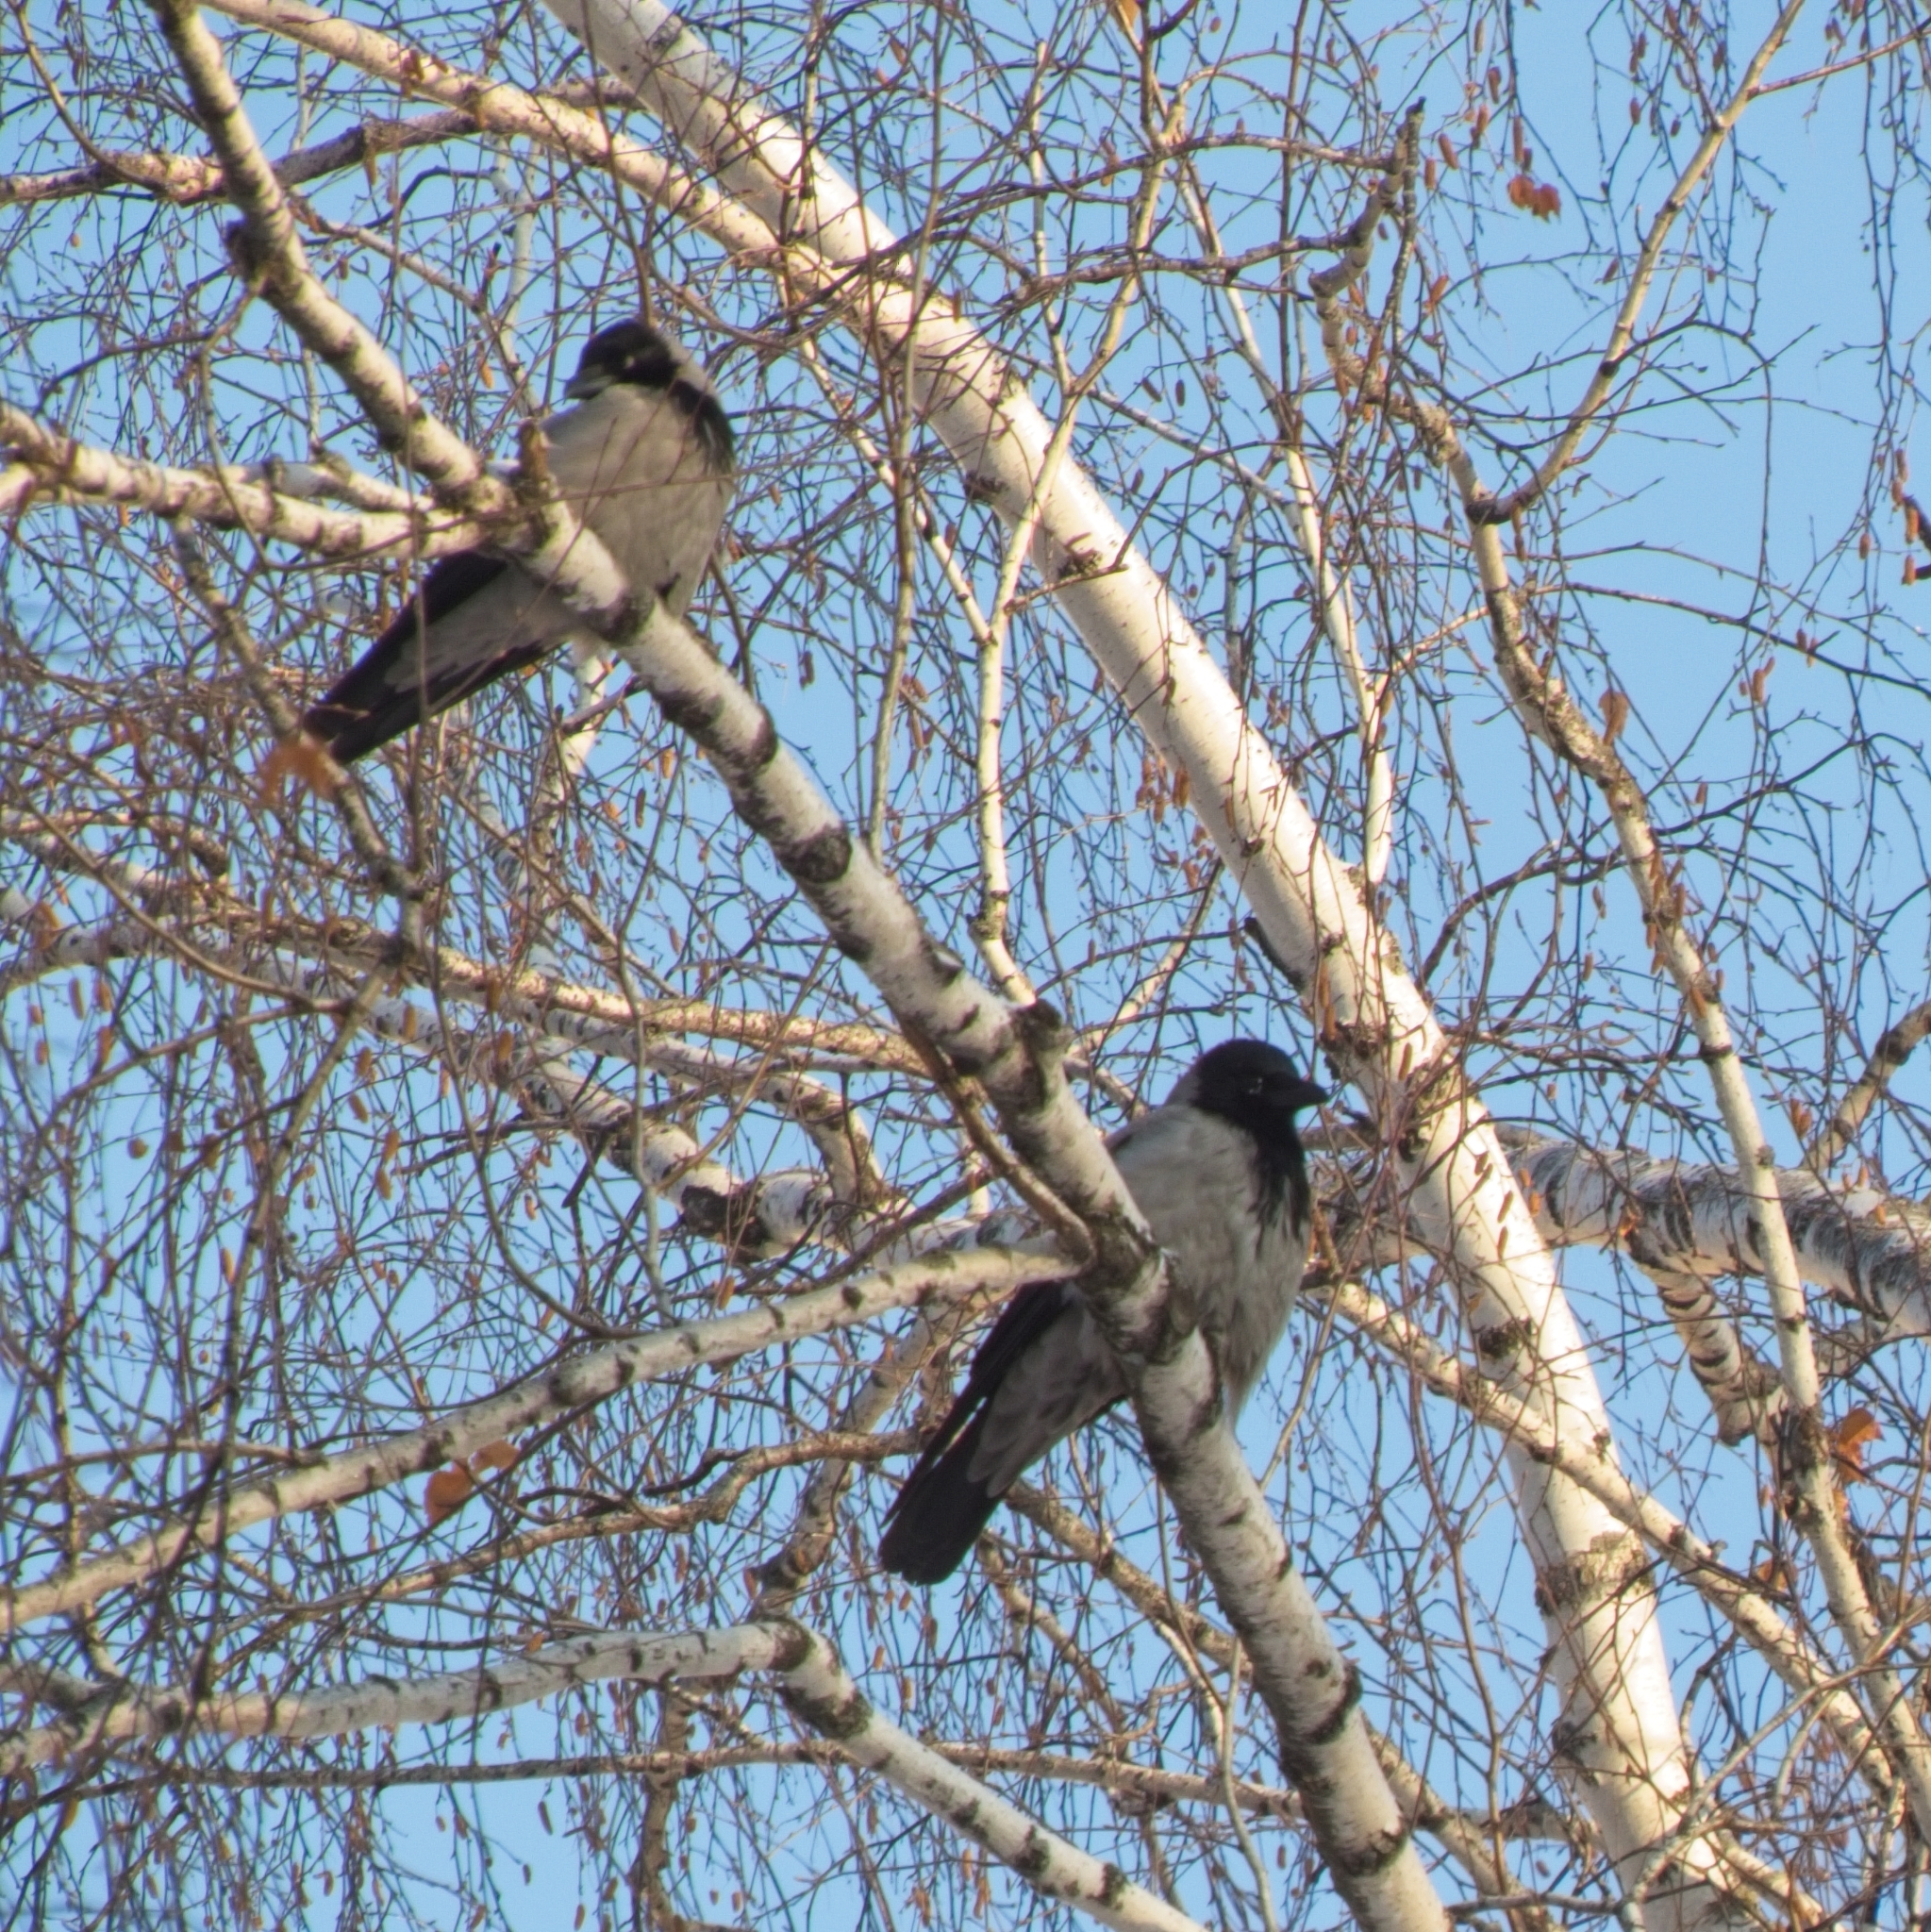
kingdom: Animalia
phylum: Chordata
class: Aves
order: Passeriformes
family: Corvidae
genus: Corvus
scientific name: Corvus cornix
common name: Hooded crow
